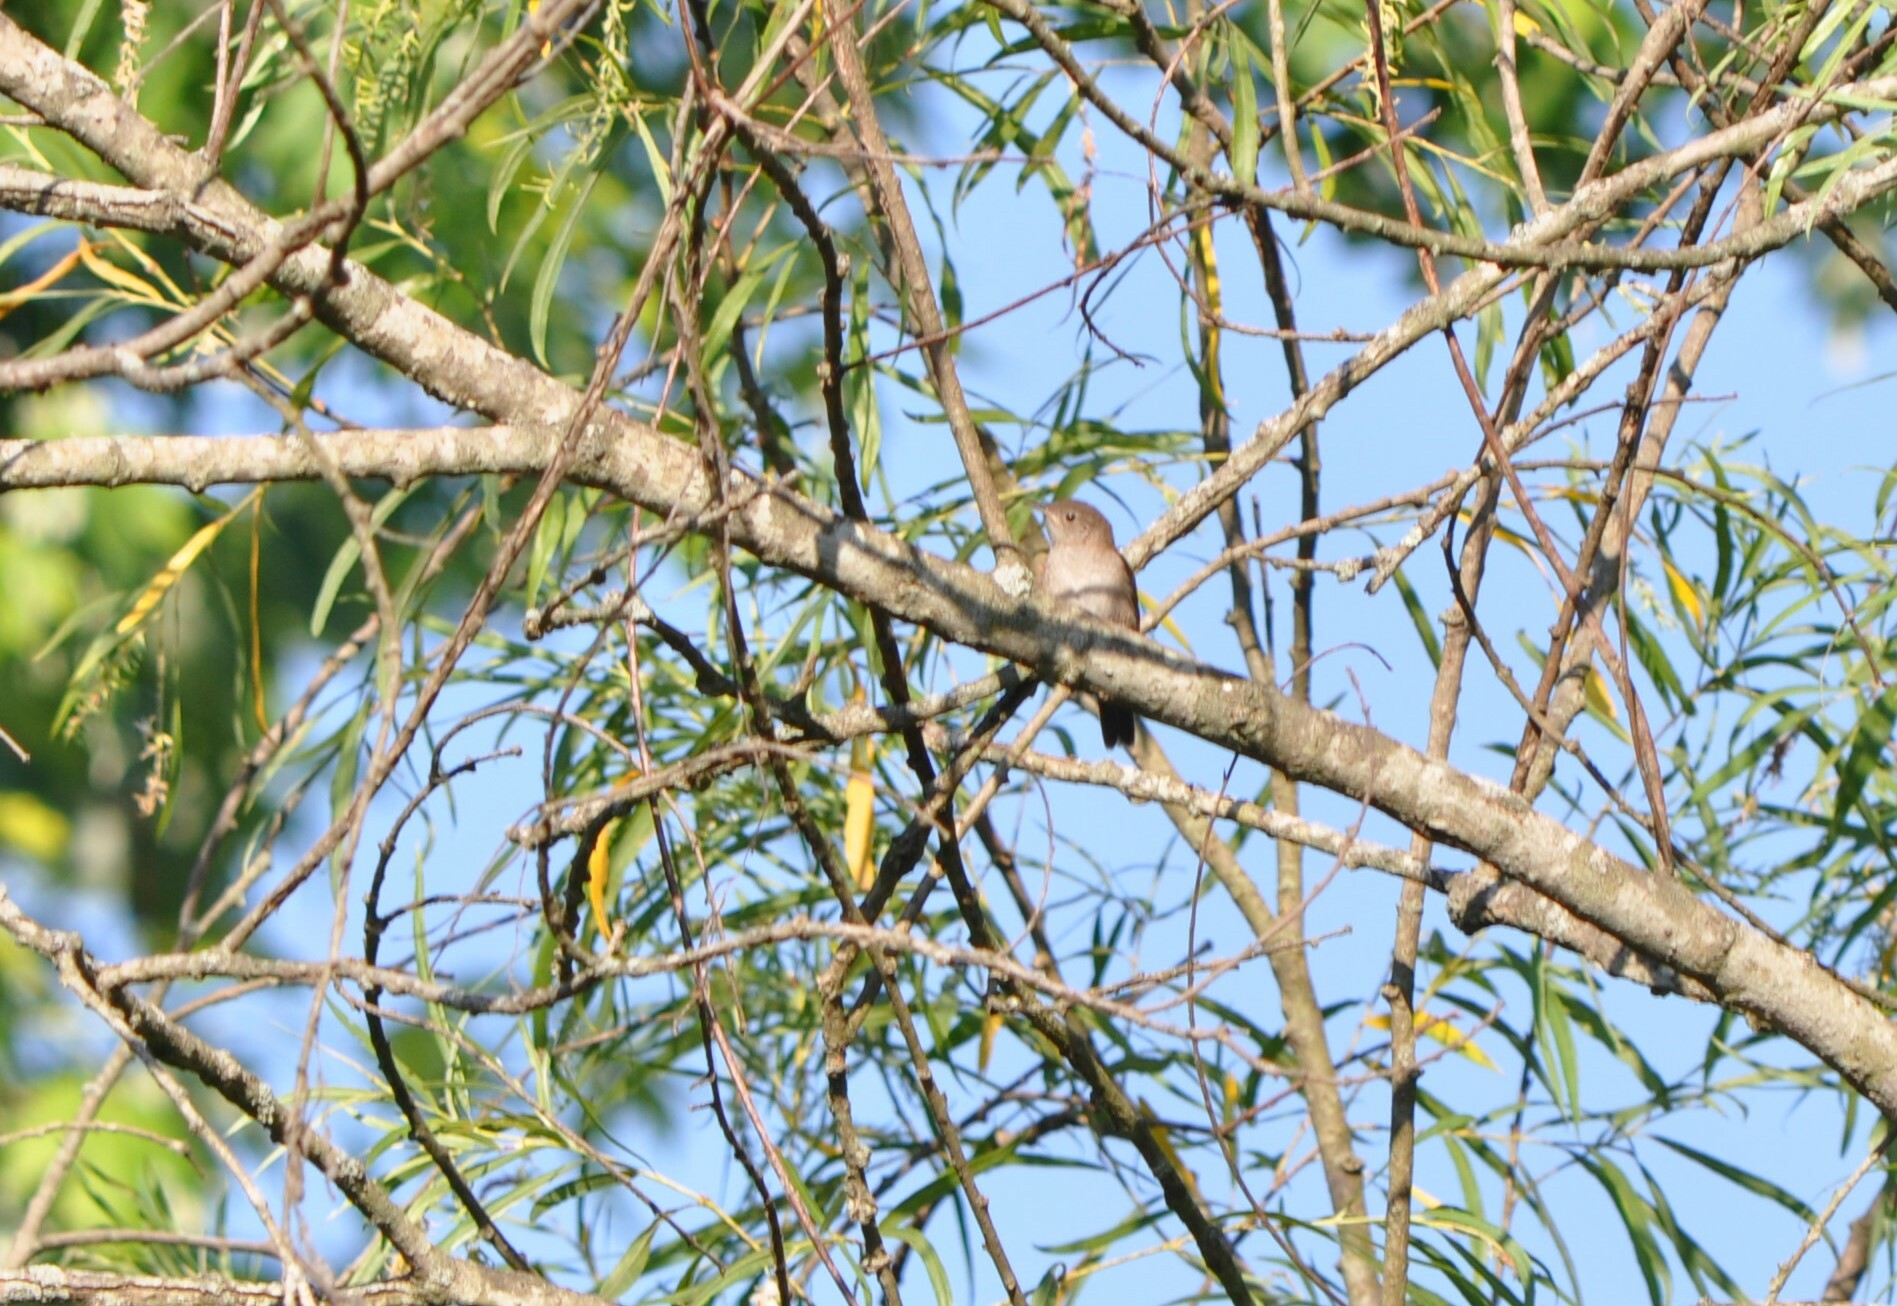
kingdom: Animalia
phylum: Chordata
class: Aves
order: Passeriformes
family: Troglodytidae
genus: Troglodytes
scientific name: Troglodytes aedon
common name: House wren
